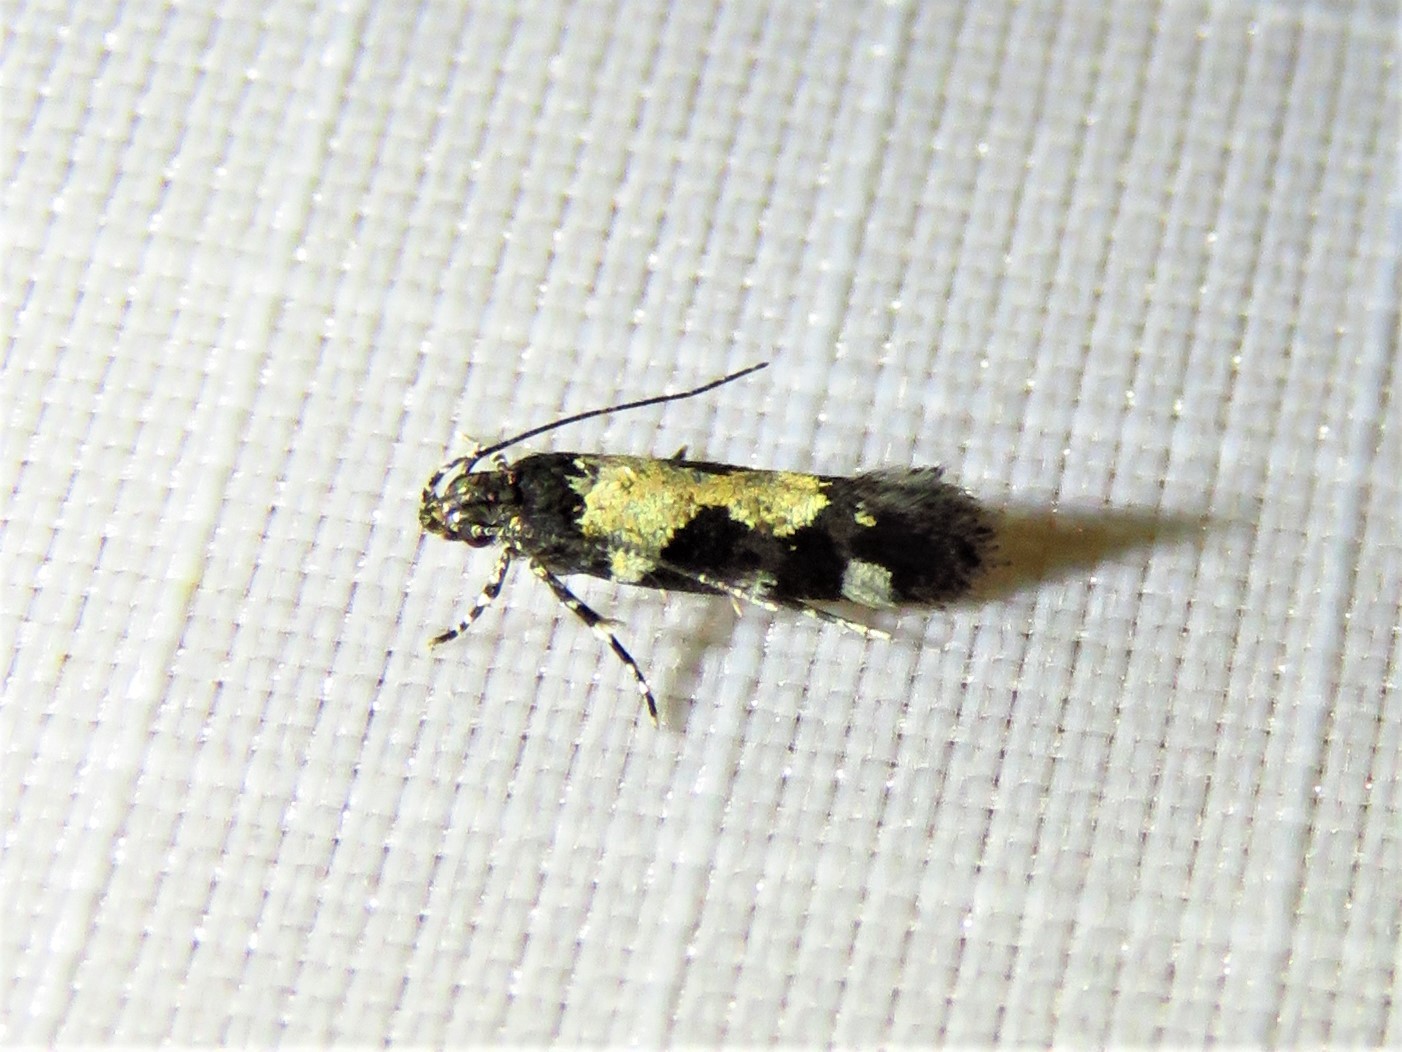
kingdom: Animalia
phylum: Arthropoda
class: Insecta
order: Lepidoptera
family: Gelechiidae
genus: Stegasta
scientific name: Stegasta bosqueella
